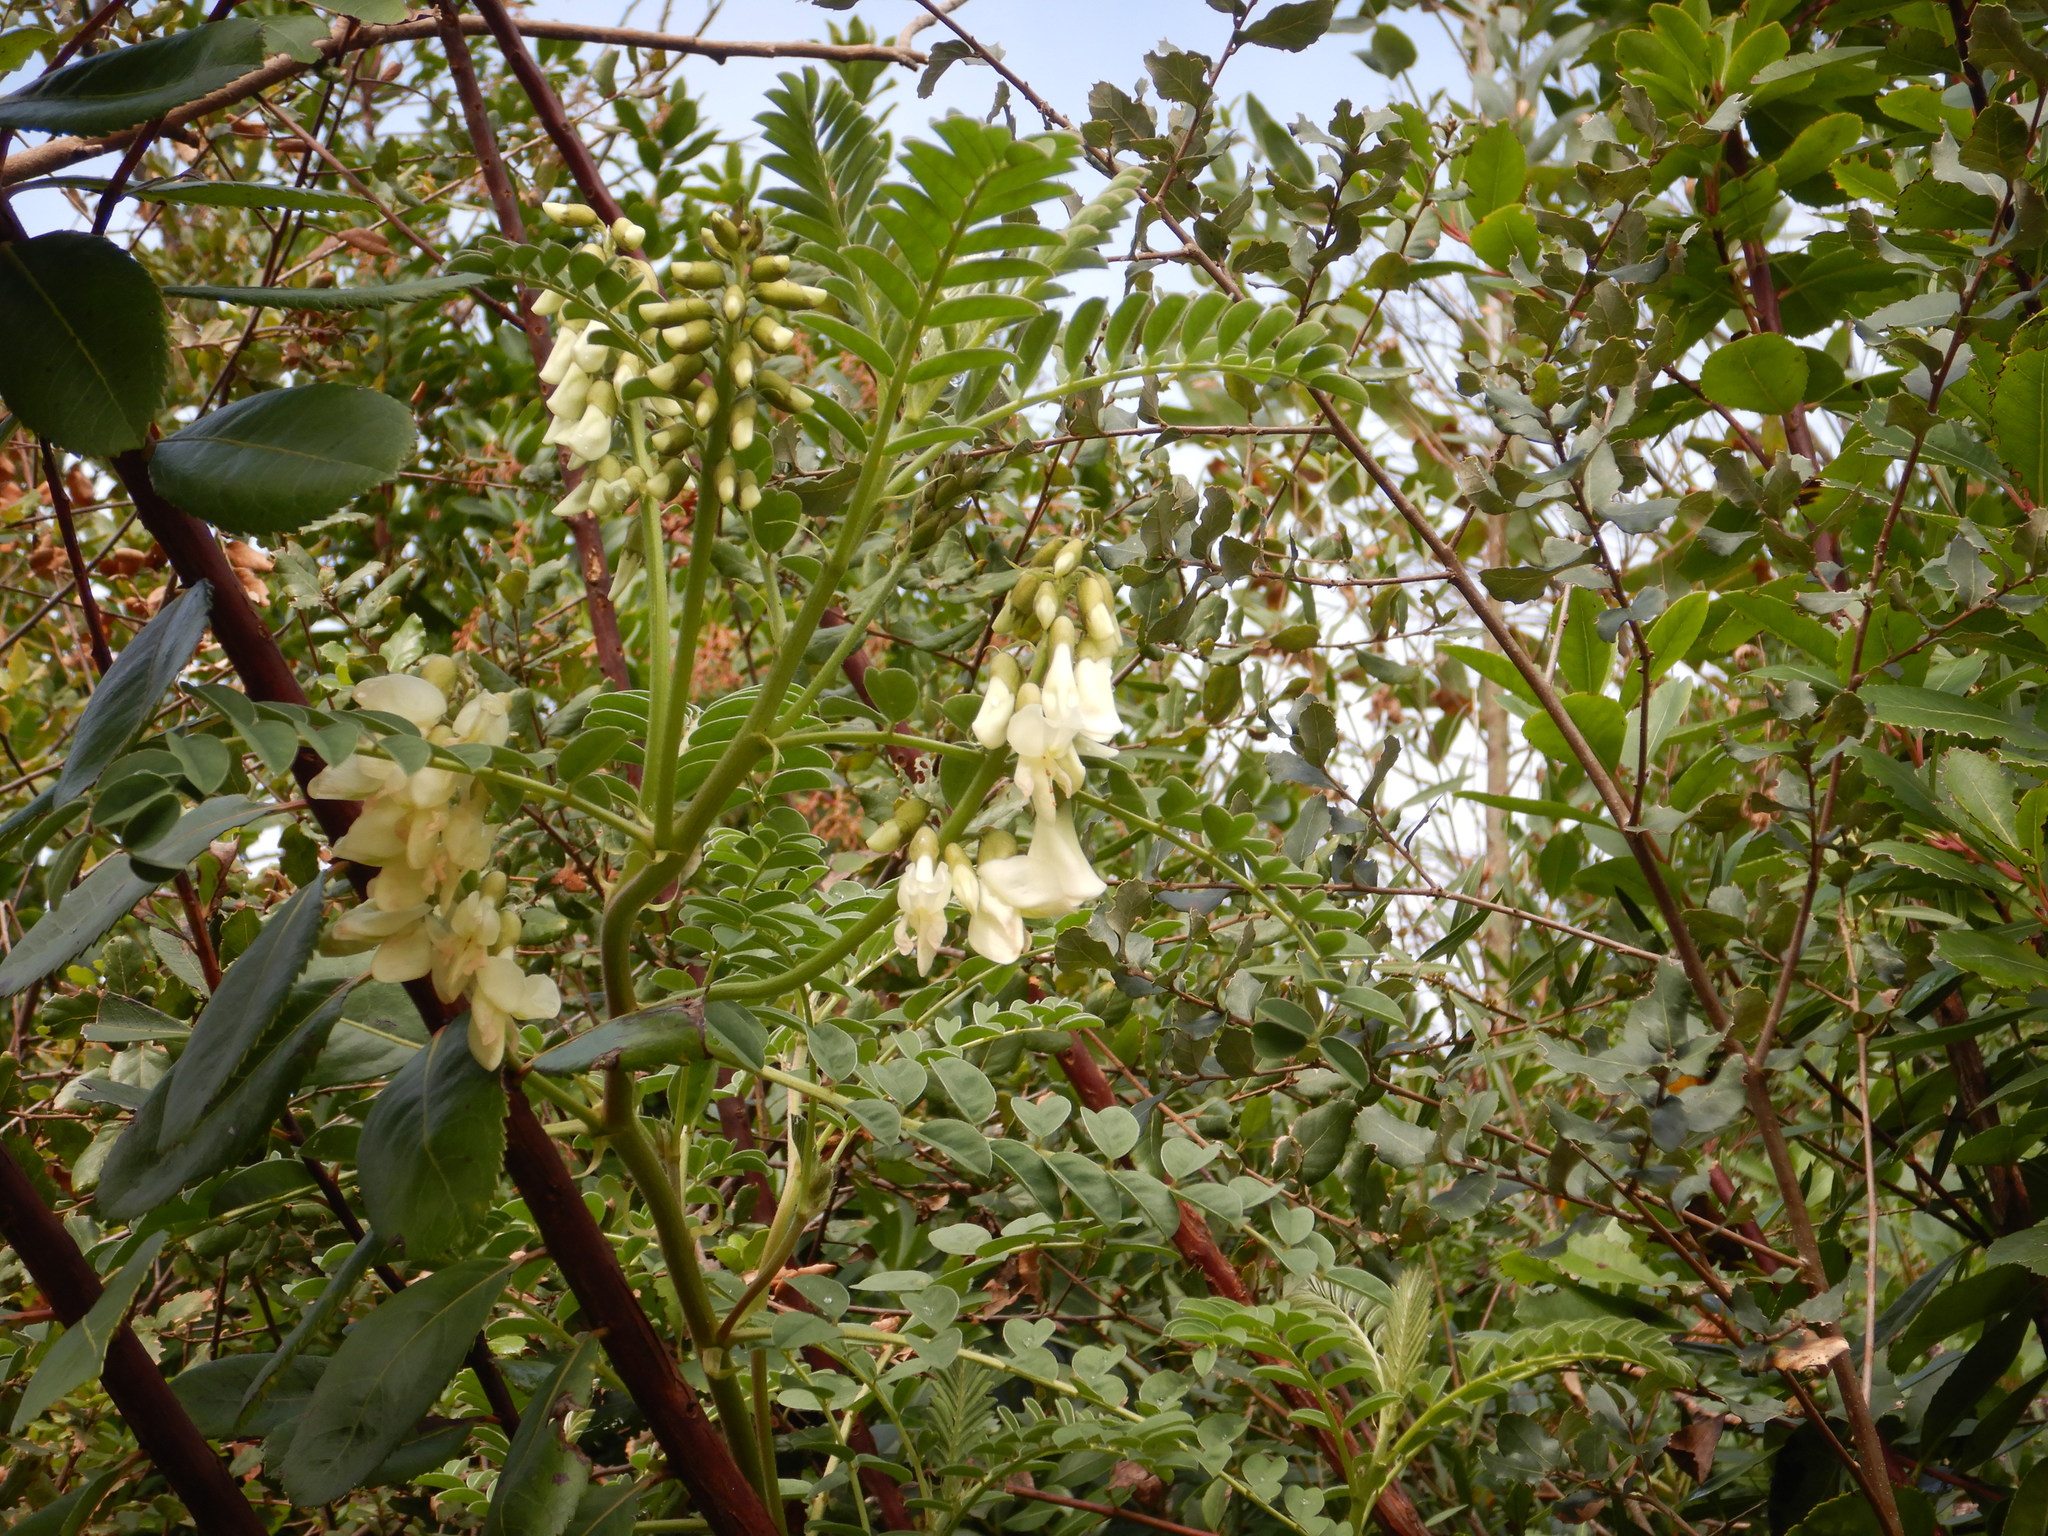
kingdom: Plantae
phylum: Tracheophyta
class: Magnoliopsida
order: Fabales
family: Fabaceae
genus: Erophaca
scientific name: Erophaca baetica
